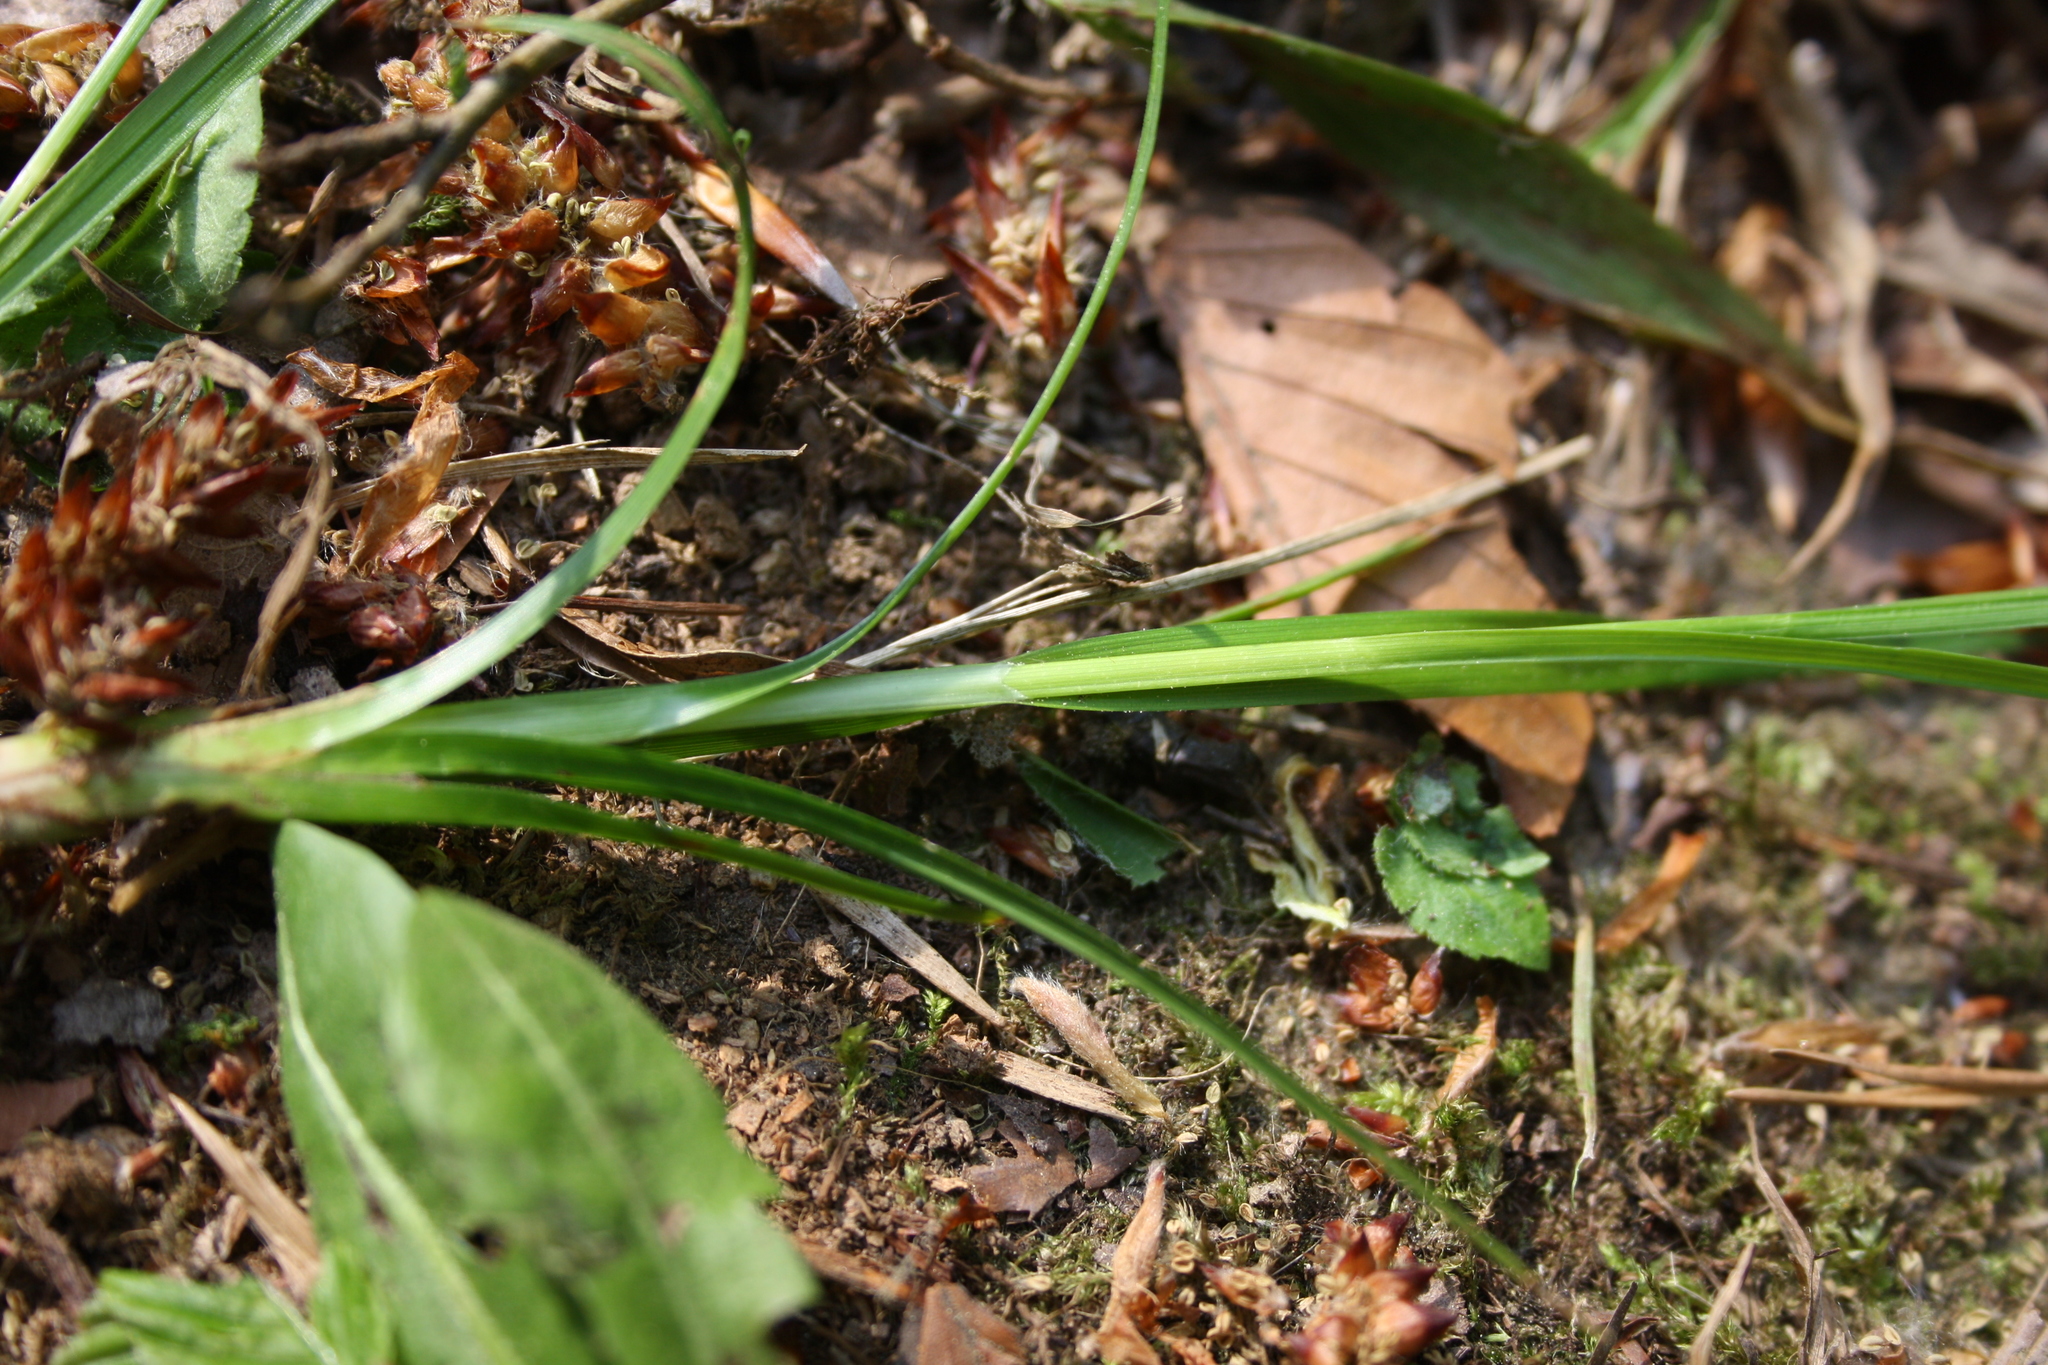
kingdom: Plantae
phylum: Tracheophyta
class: Liliopsida
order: Poales
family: Cyperaceae
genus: Carex
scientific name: Carex sylvatica
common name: Wood-sedge
